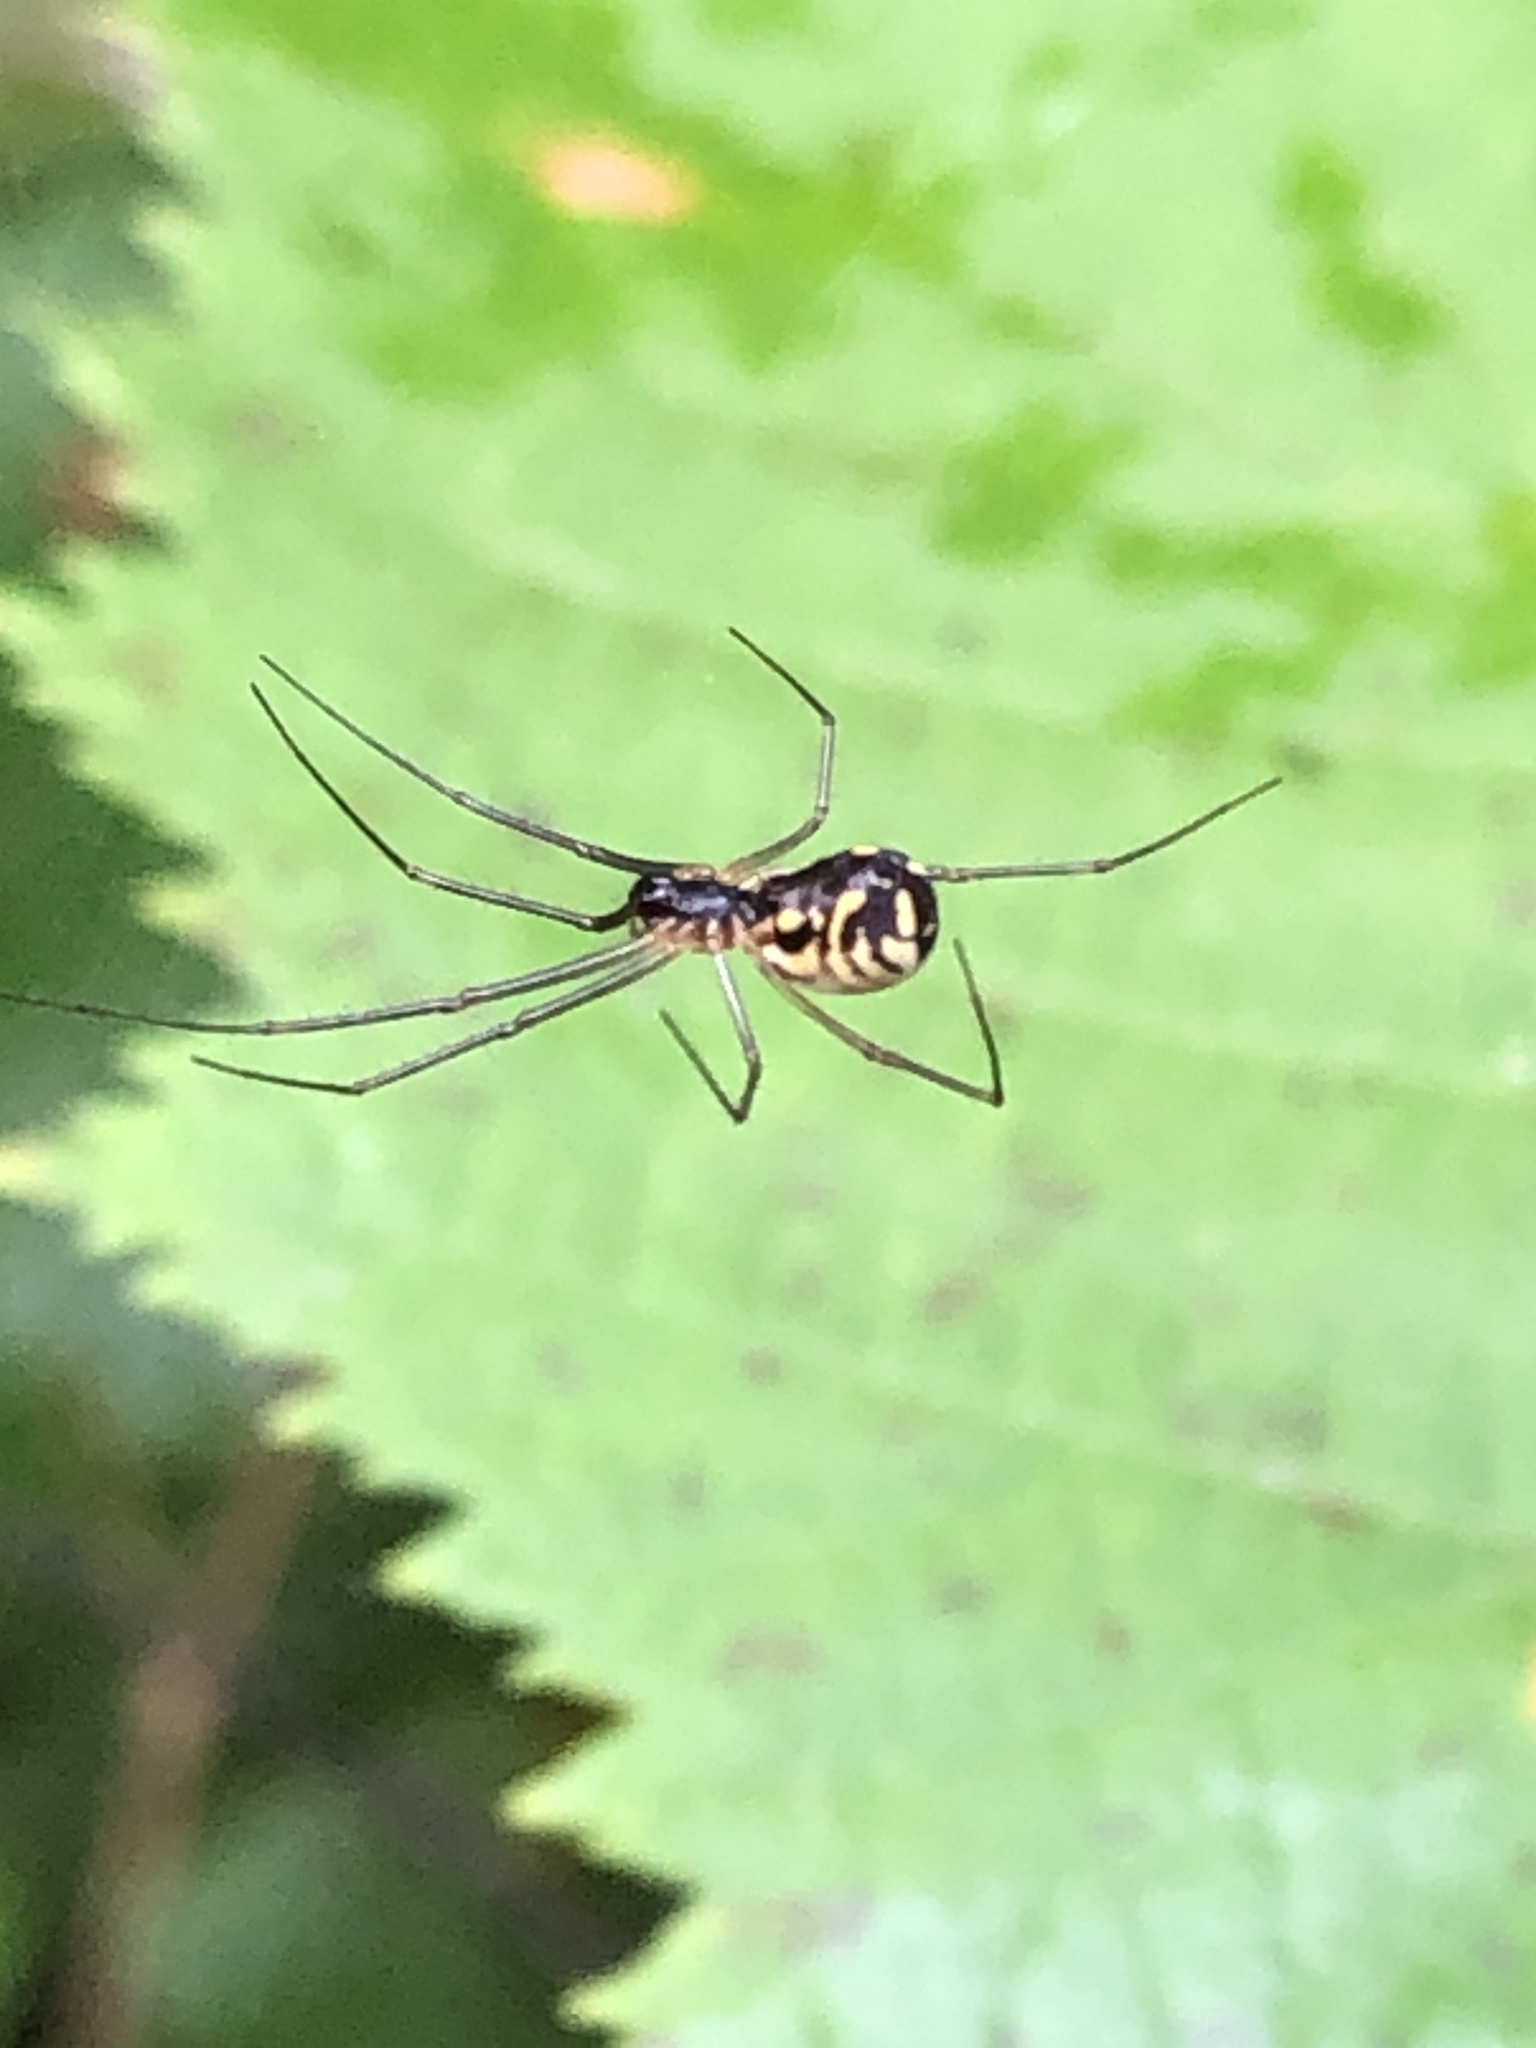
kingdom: Animalia
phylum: Arthropoda
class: Arachnida
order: Araneae
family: Linyphiidae
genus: Neriene
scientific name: Neriene radiata
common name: Filmy dome spider
